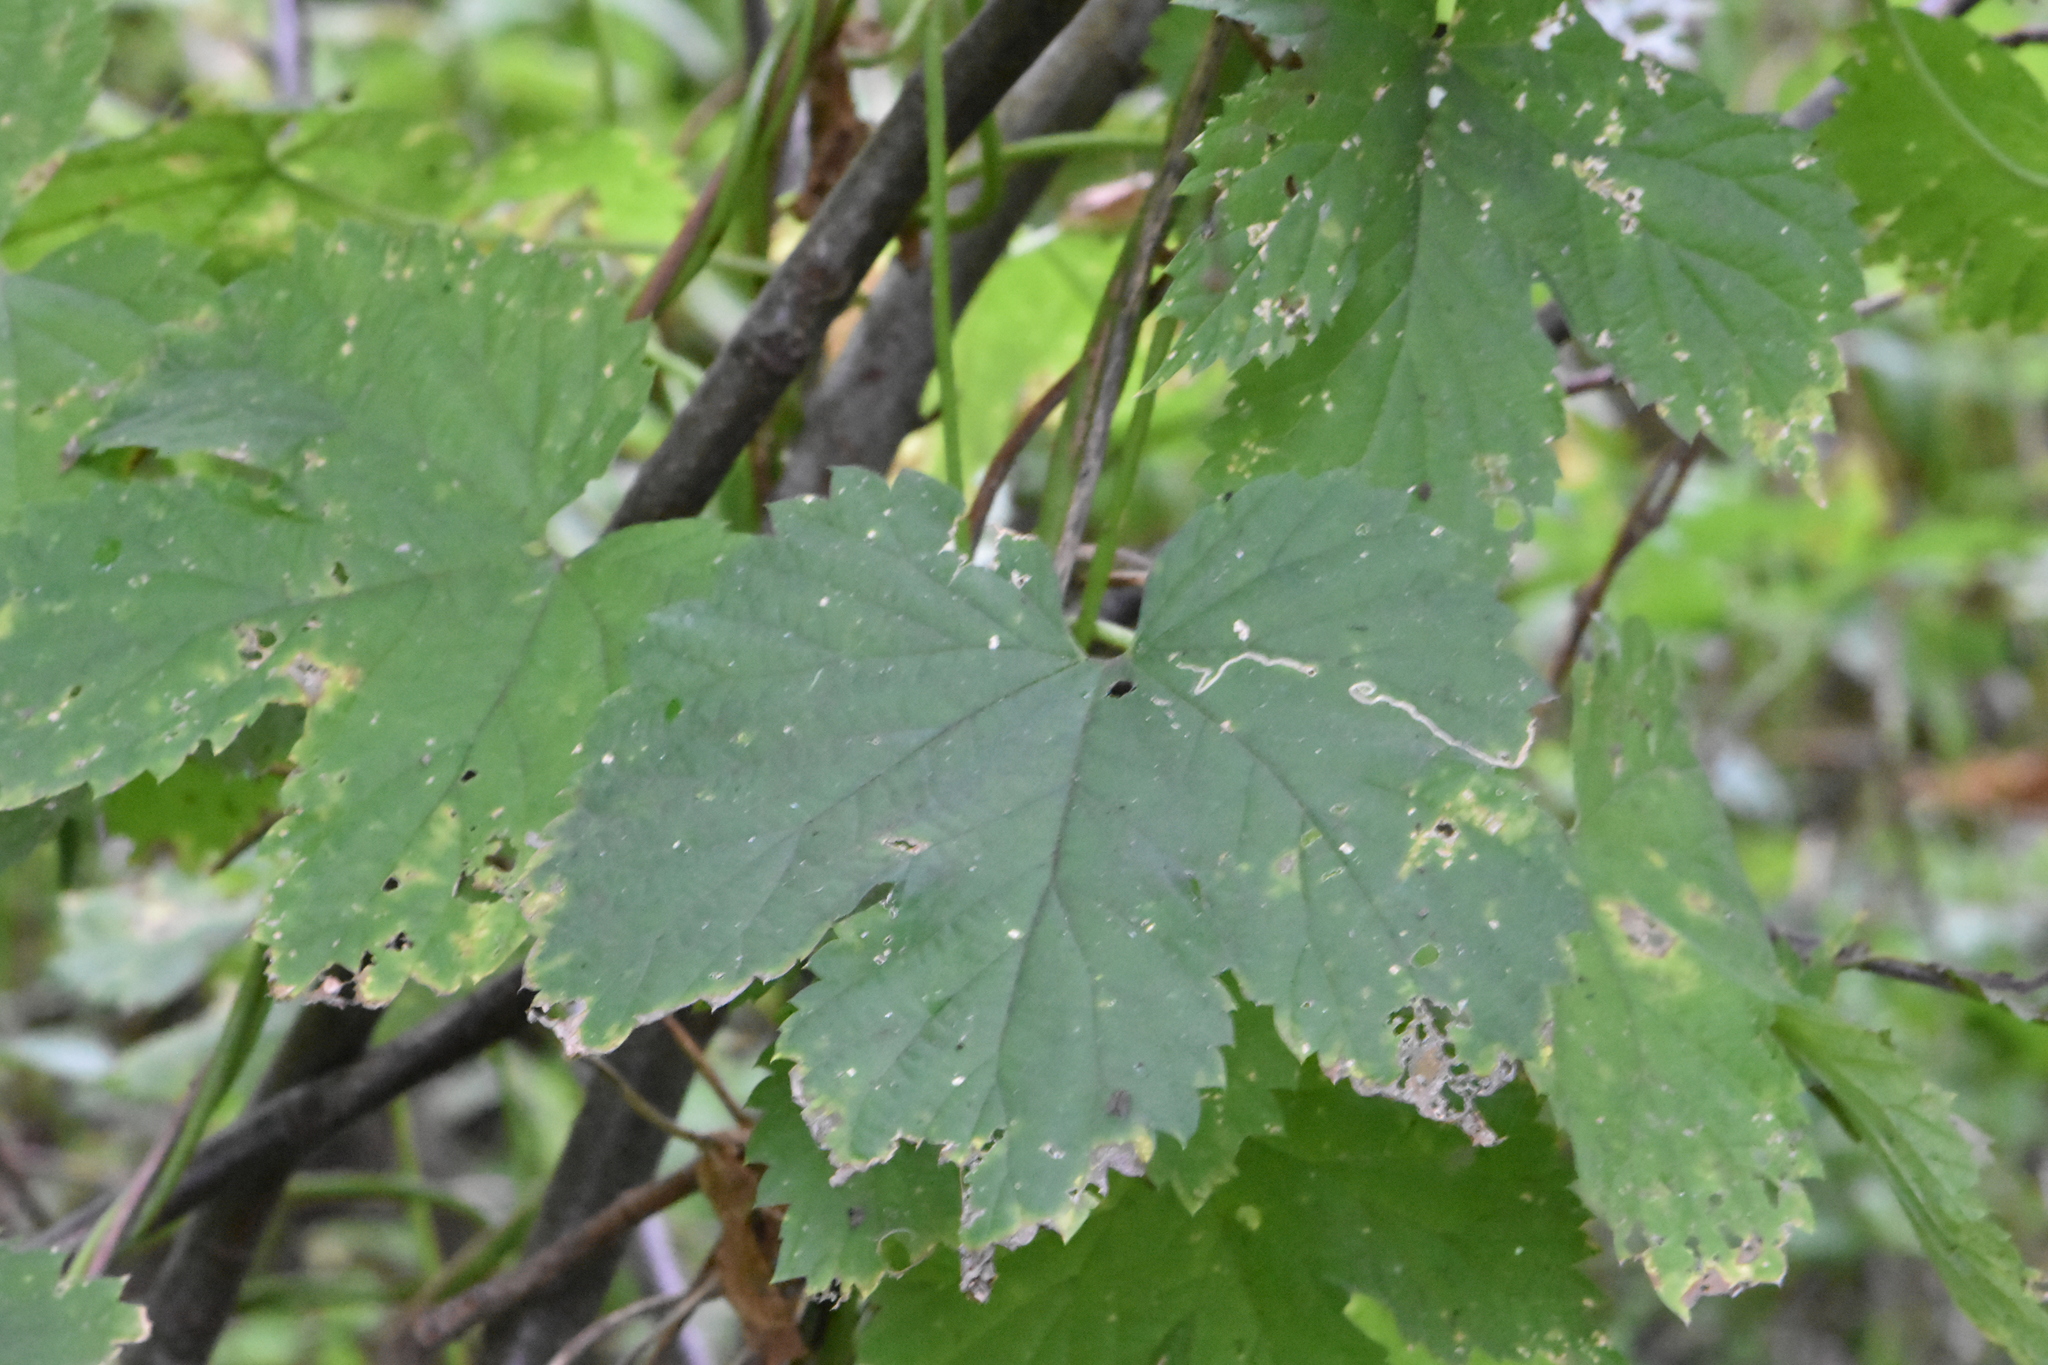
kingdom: Plantae
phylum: Tracheophyta
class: Magnoliopsida
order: Rosales
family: Cannabaceae
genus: Humulus
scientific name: Humulus lupulus
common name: Hop
